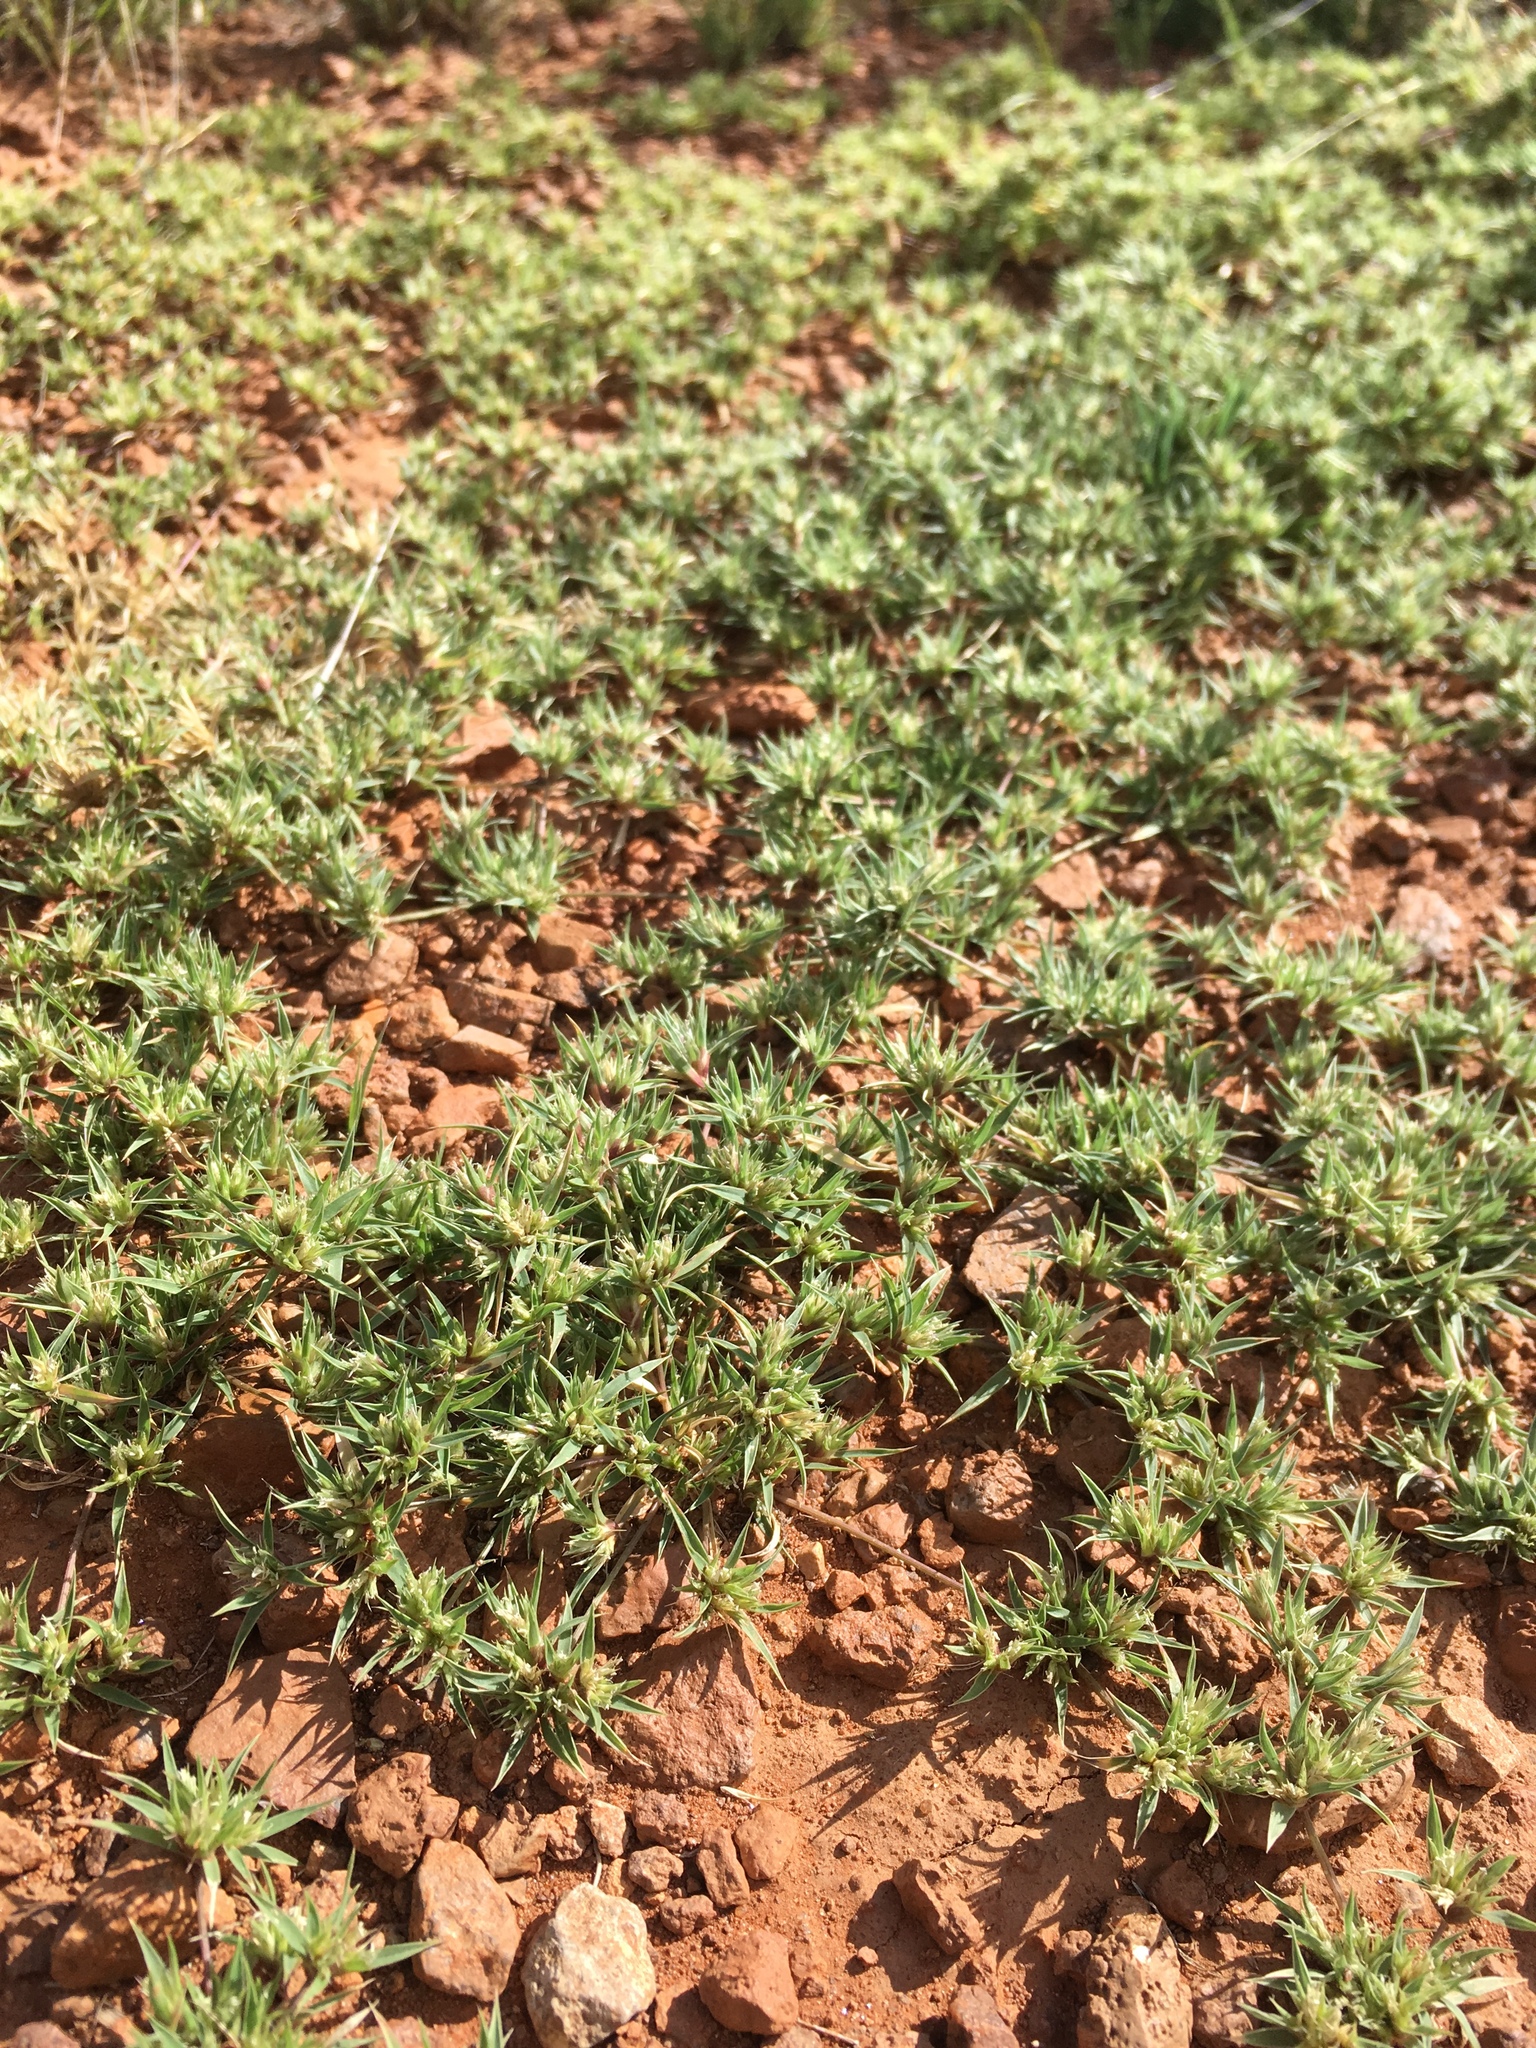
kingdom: Plantae
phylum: Tracheophyta
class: Liliopsida
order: Poales
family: Poaceae
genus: Munroa
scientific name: Munroa squarrosa
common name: False buffalo grass
